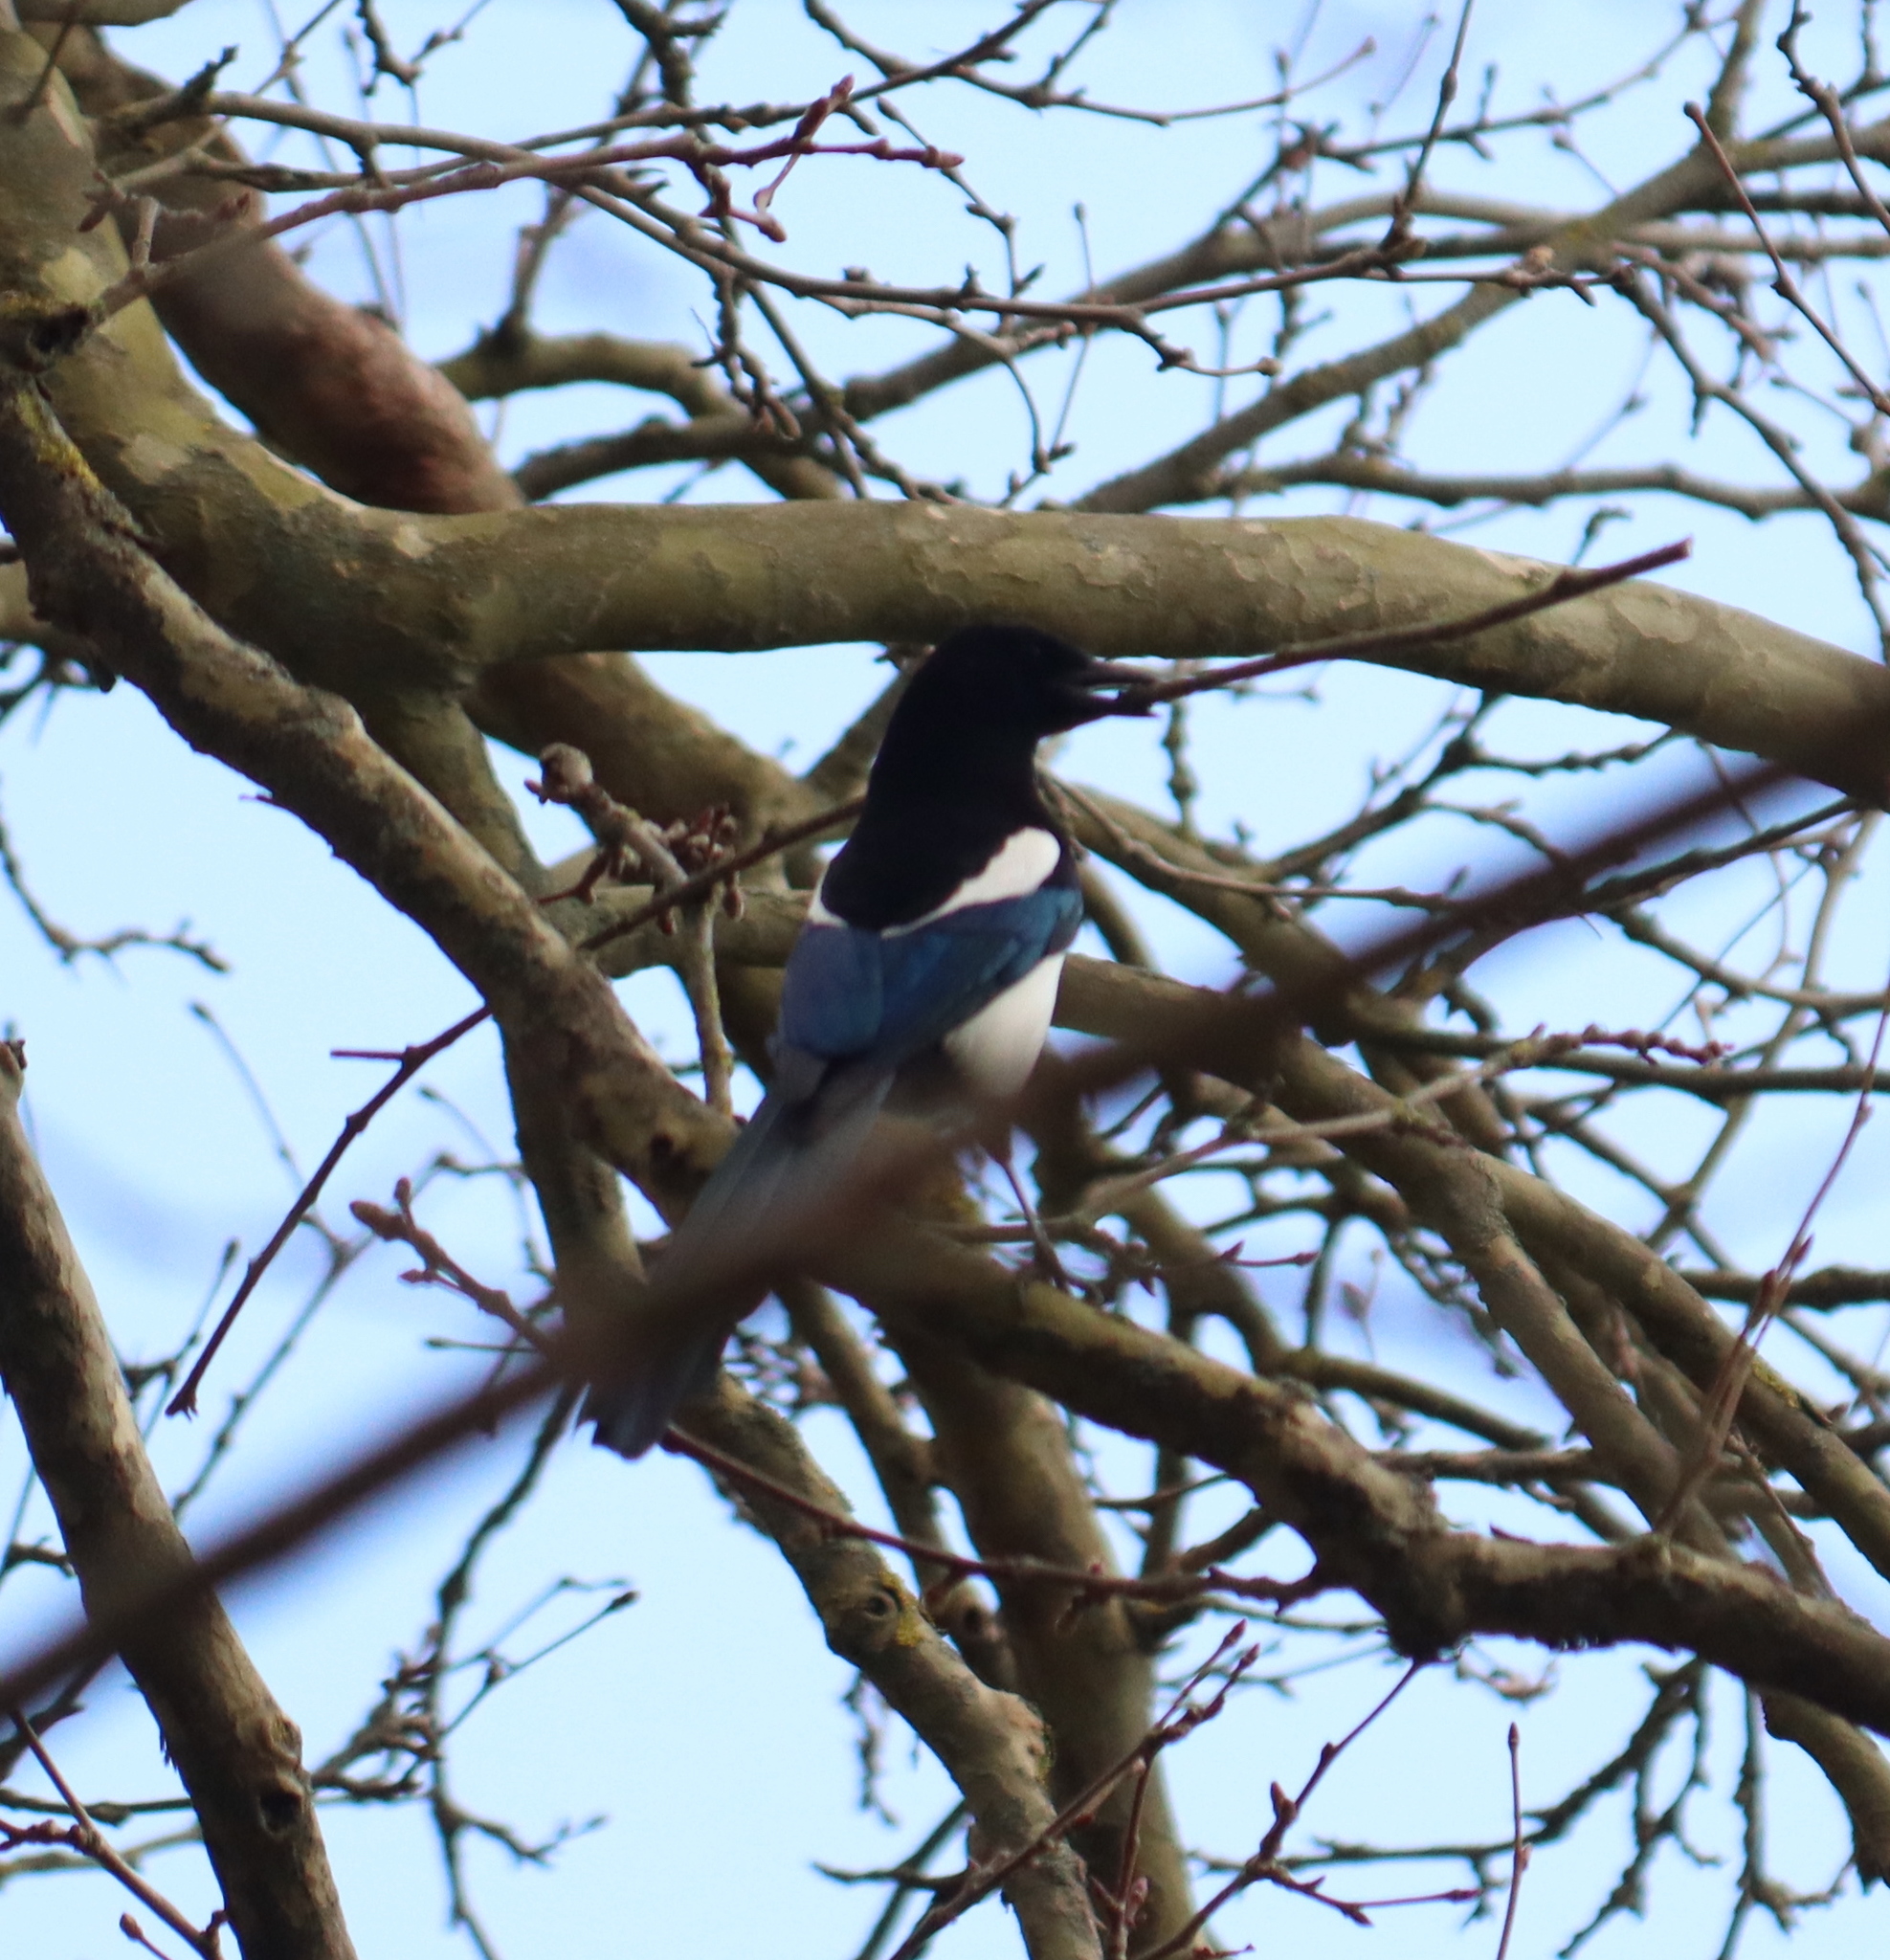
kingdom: Animalia
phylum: Chordata
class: Aves
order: Passeriformes
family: Corvidae
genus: Pica
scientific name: Pica pica
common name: Eurasian magpie
